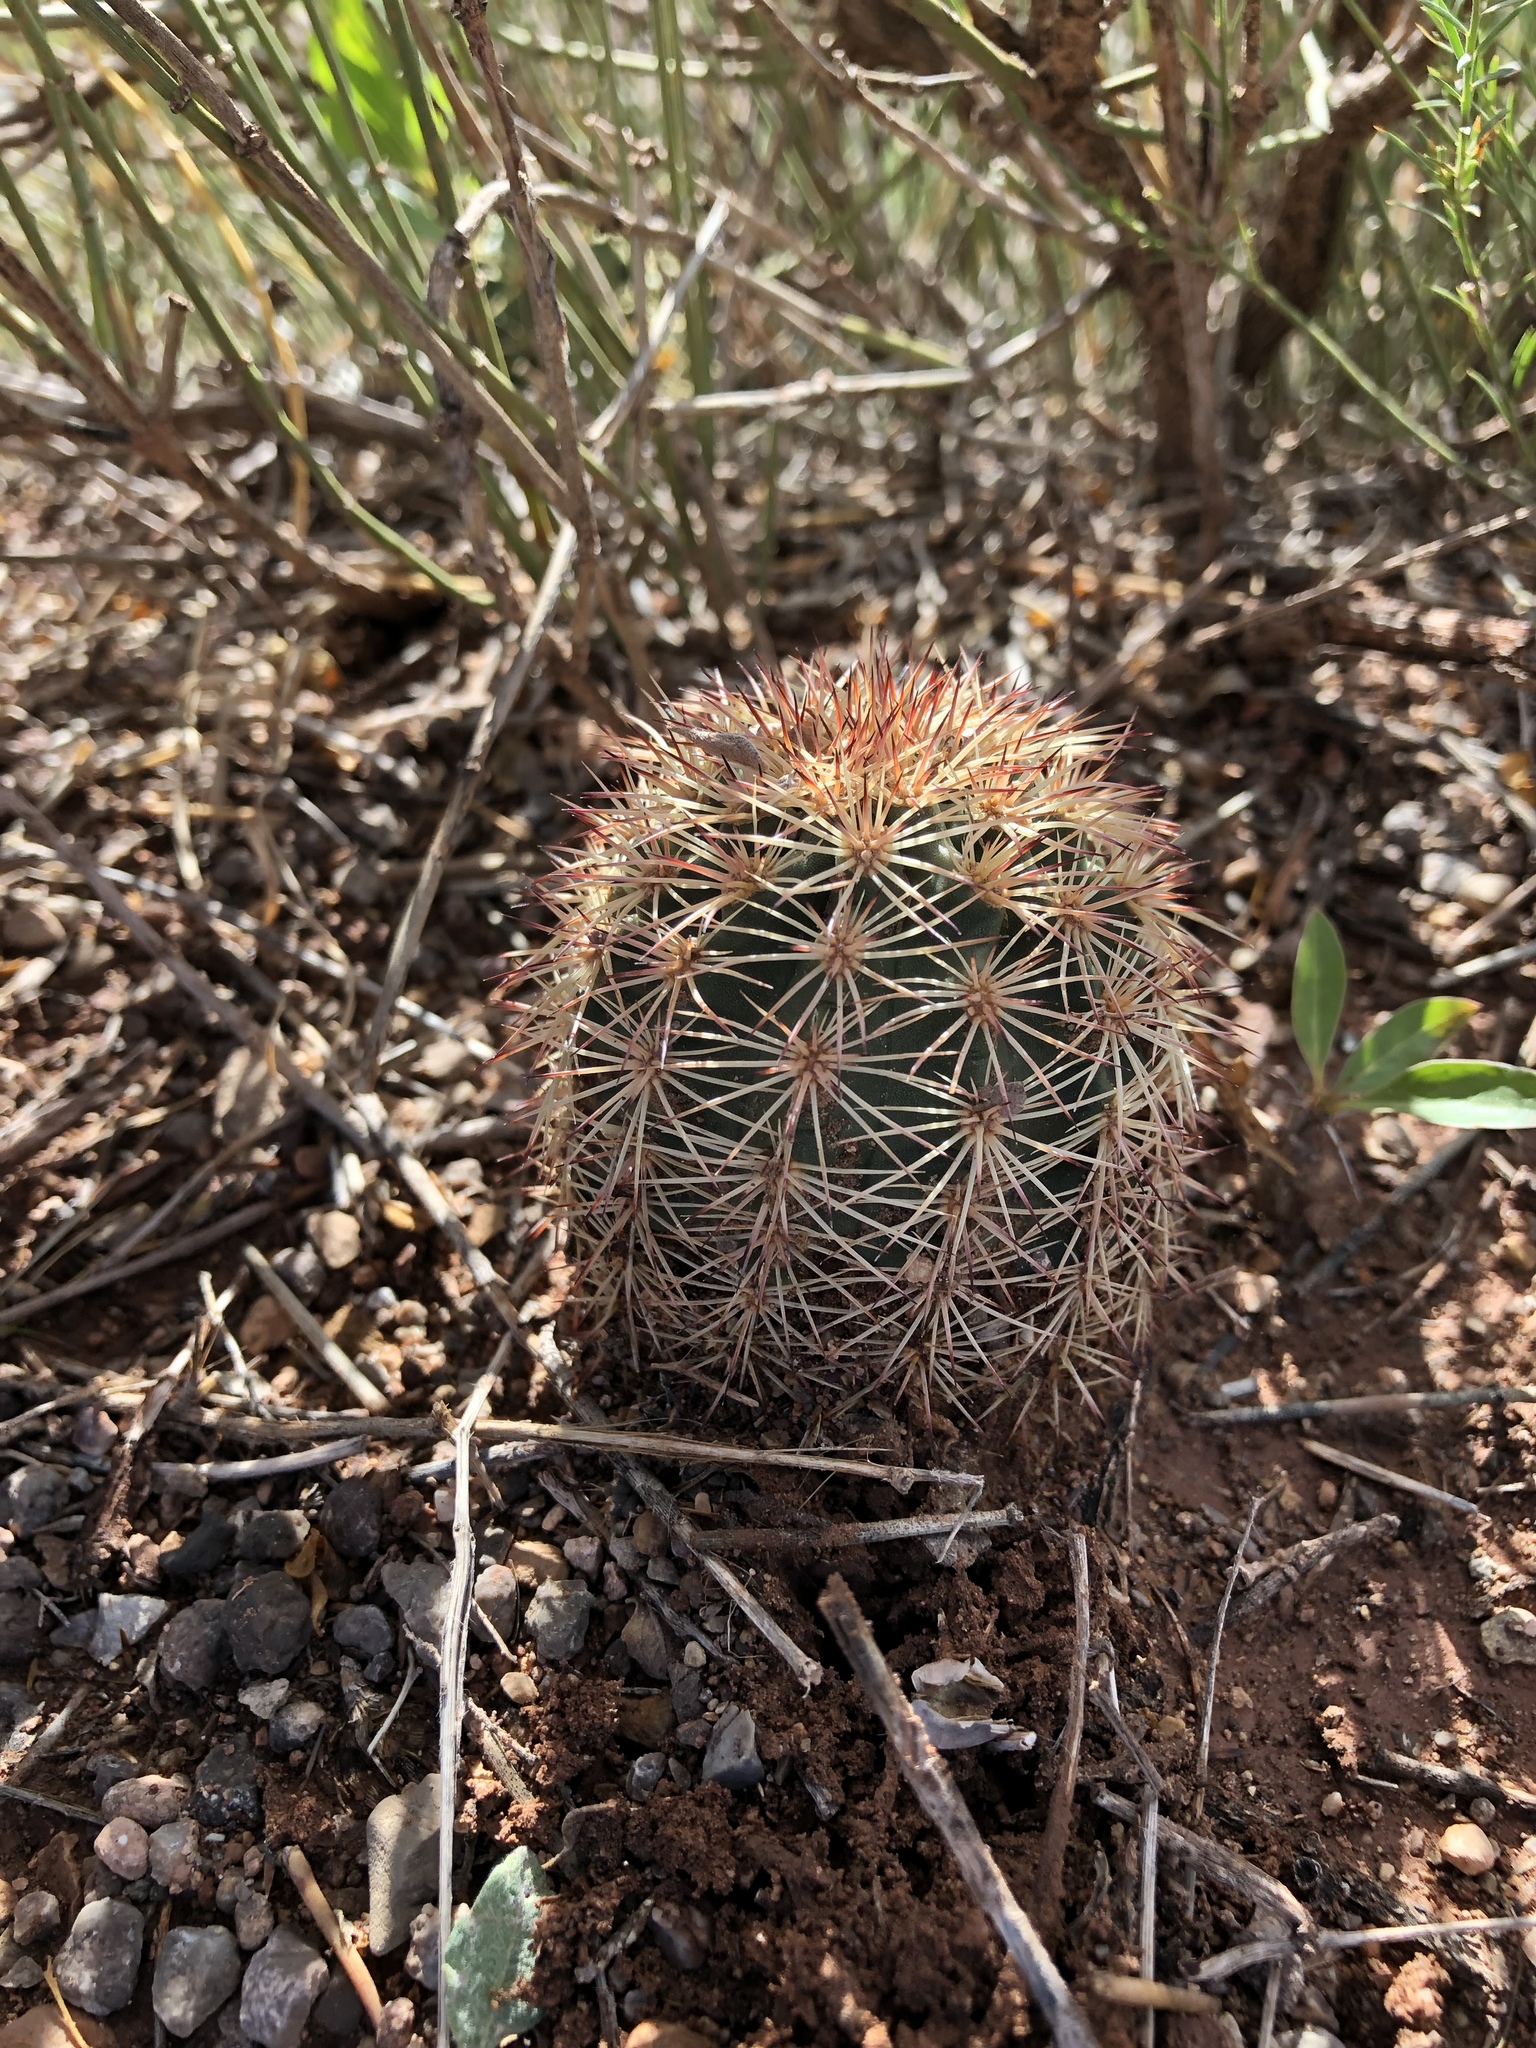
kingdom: Plantae
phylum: Tracheophyta
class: Magnoliopsida
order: Caryophyllales
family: Cactaceae
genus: Echinocereus
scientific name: Echinocereus dasyacanthus
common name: Spiny hedgehog cactus
